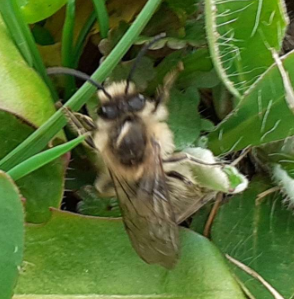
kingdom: Animalia
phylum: Arthropoda
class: Insecta
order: Hymenoptera
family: Colletidae
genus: Colletes
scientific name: Colletes cunicularius
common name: Early colletes
